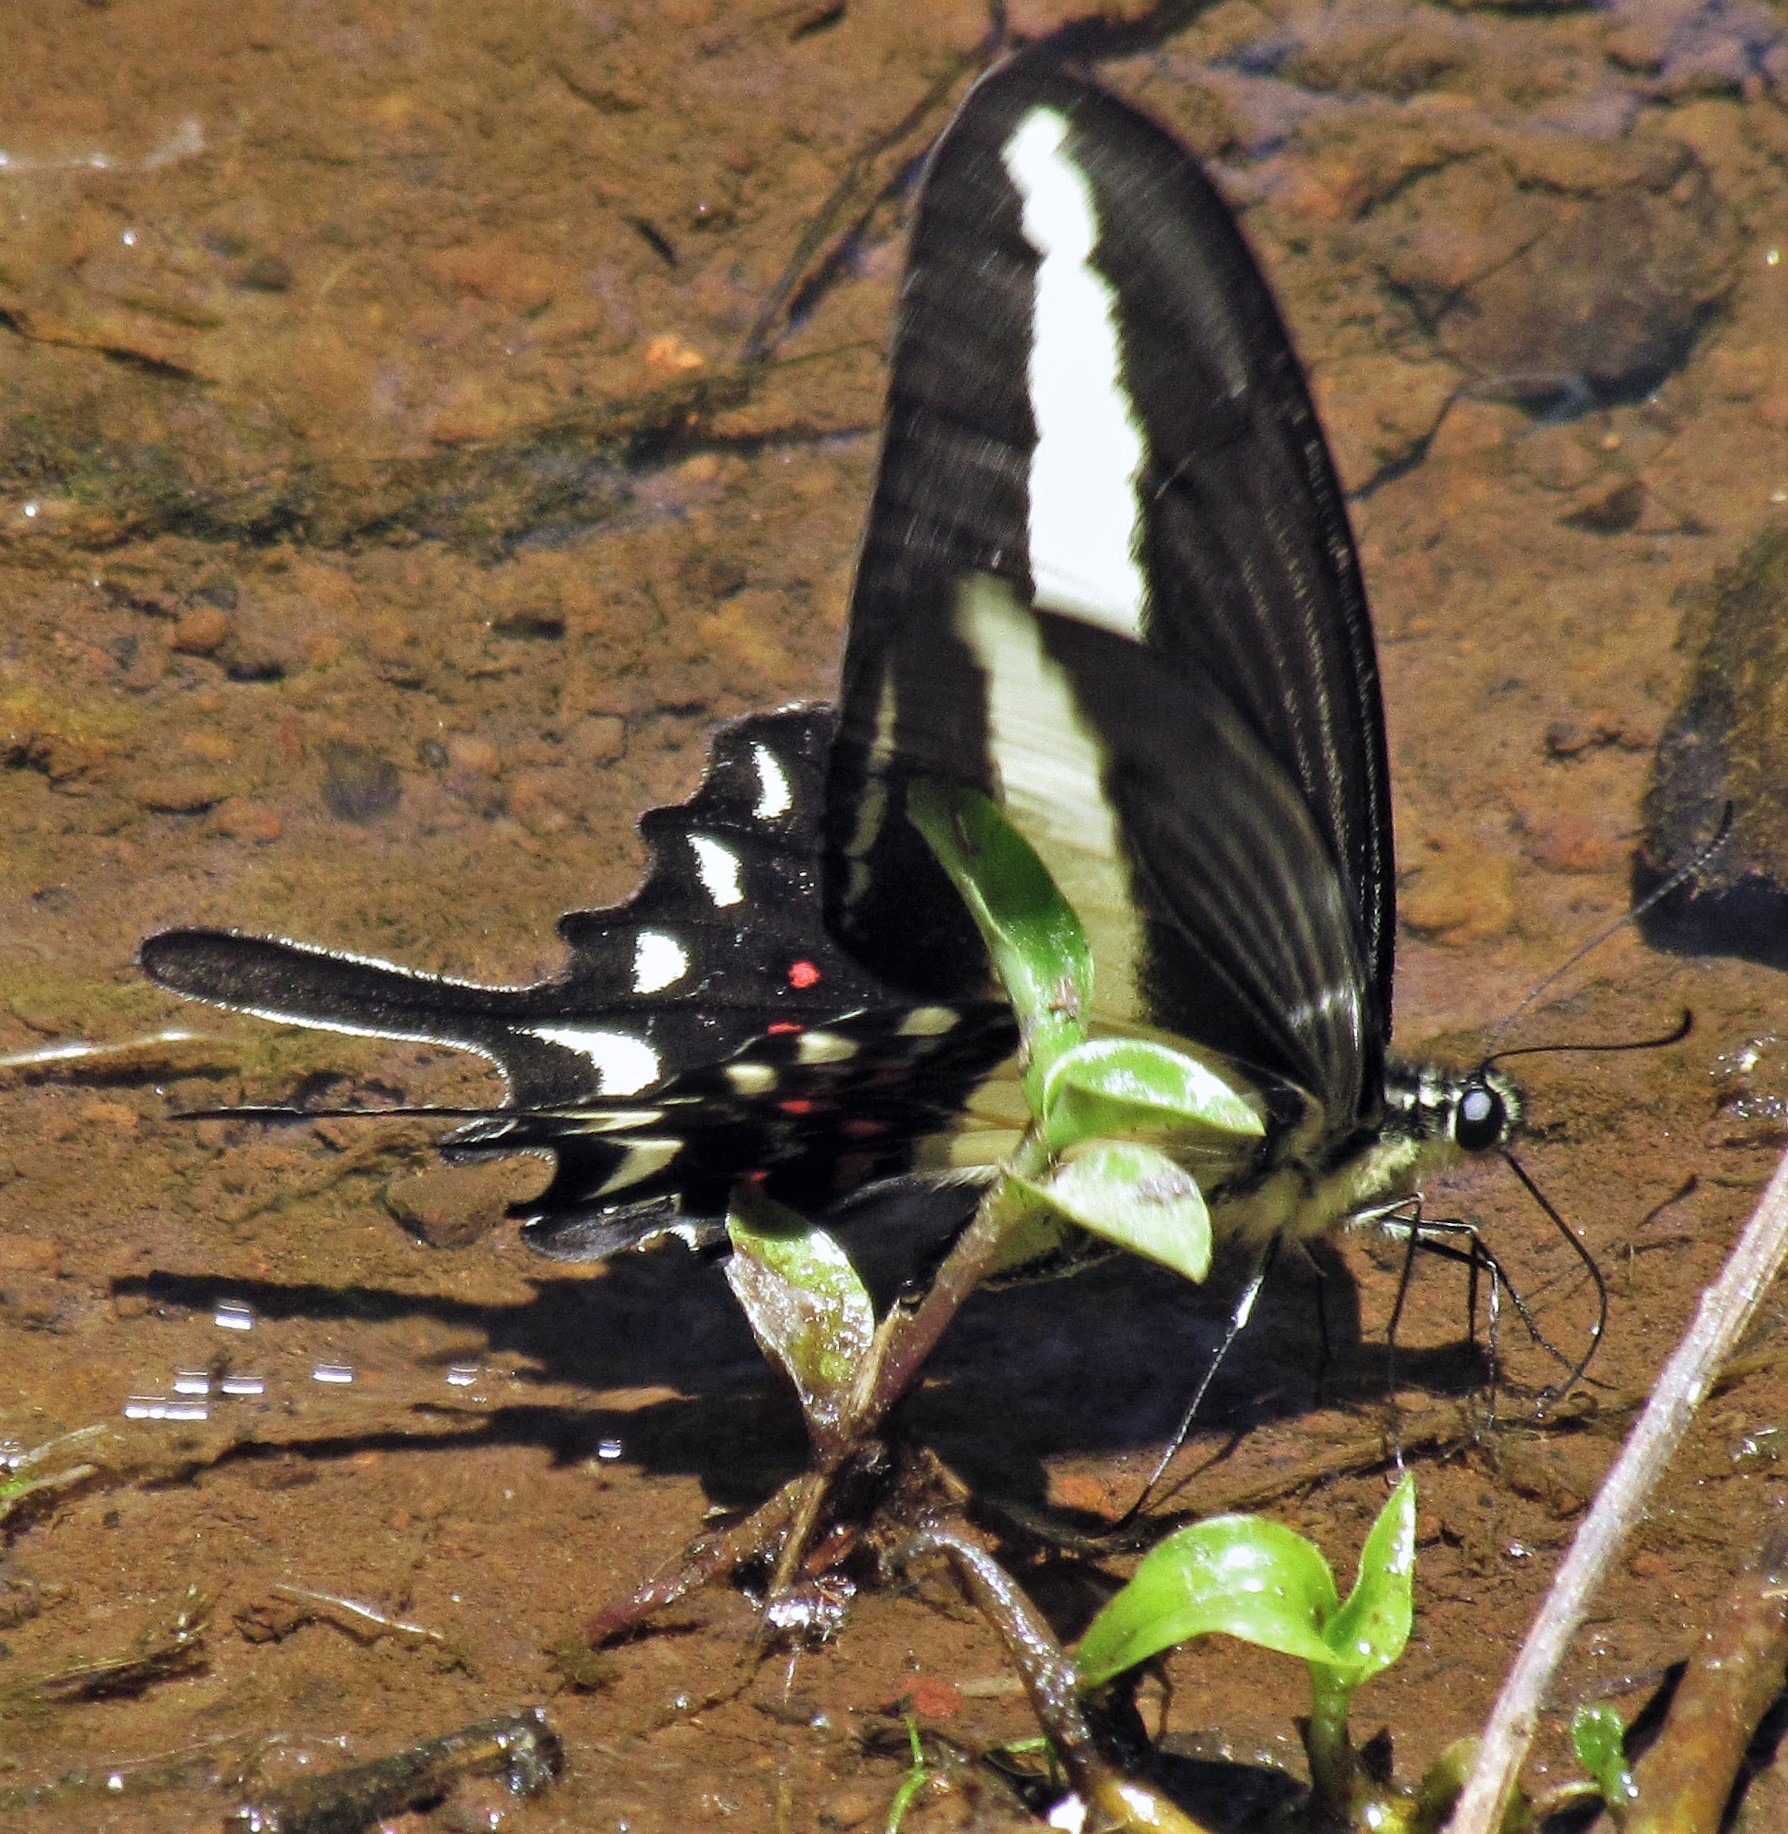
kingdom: Animalia
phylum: Arthropoda
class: Insecta
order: Lepidoptera
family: Papilionidae
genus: Heraclides
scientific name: Heraclides hectorides
